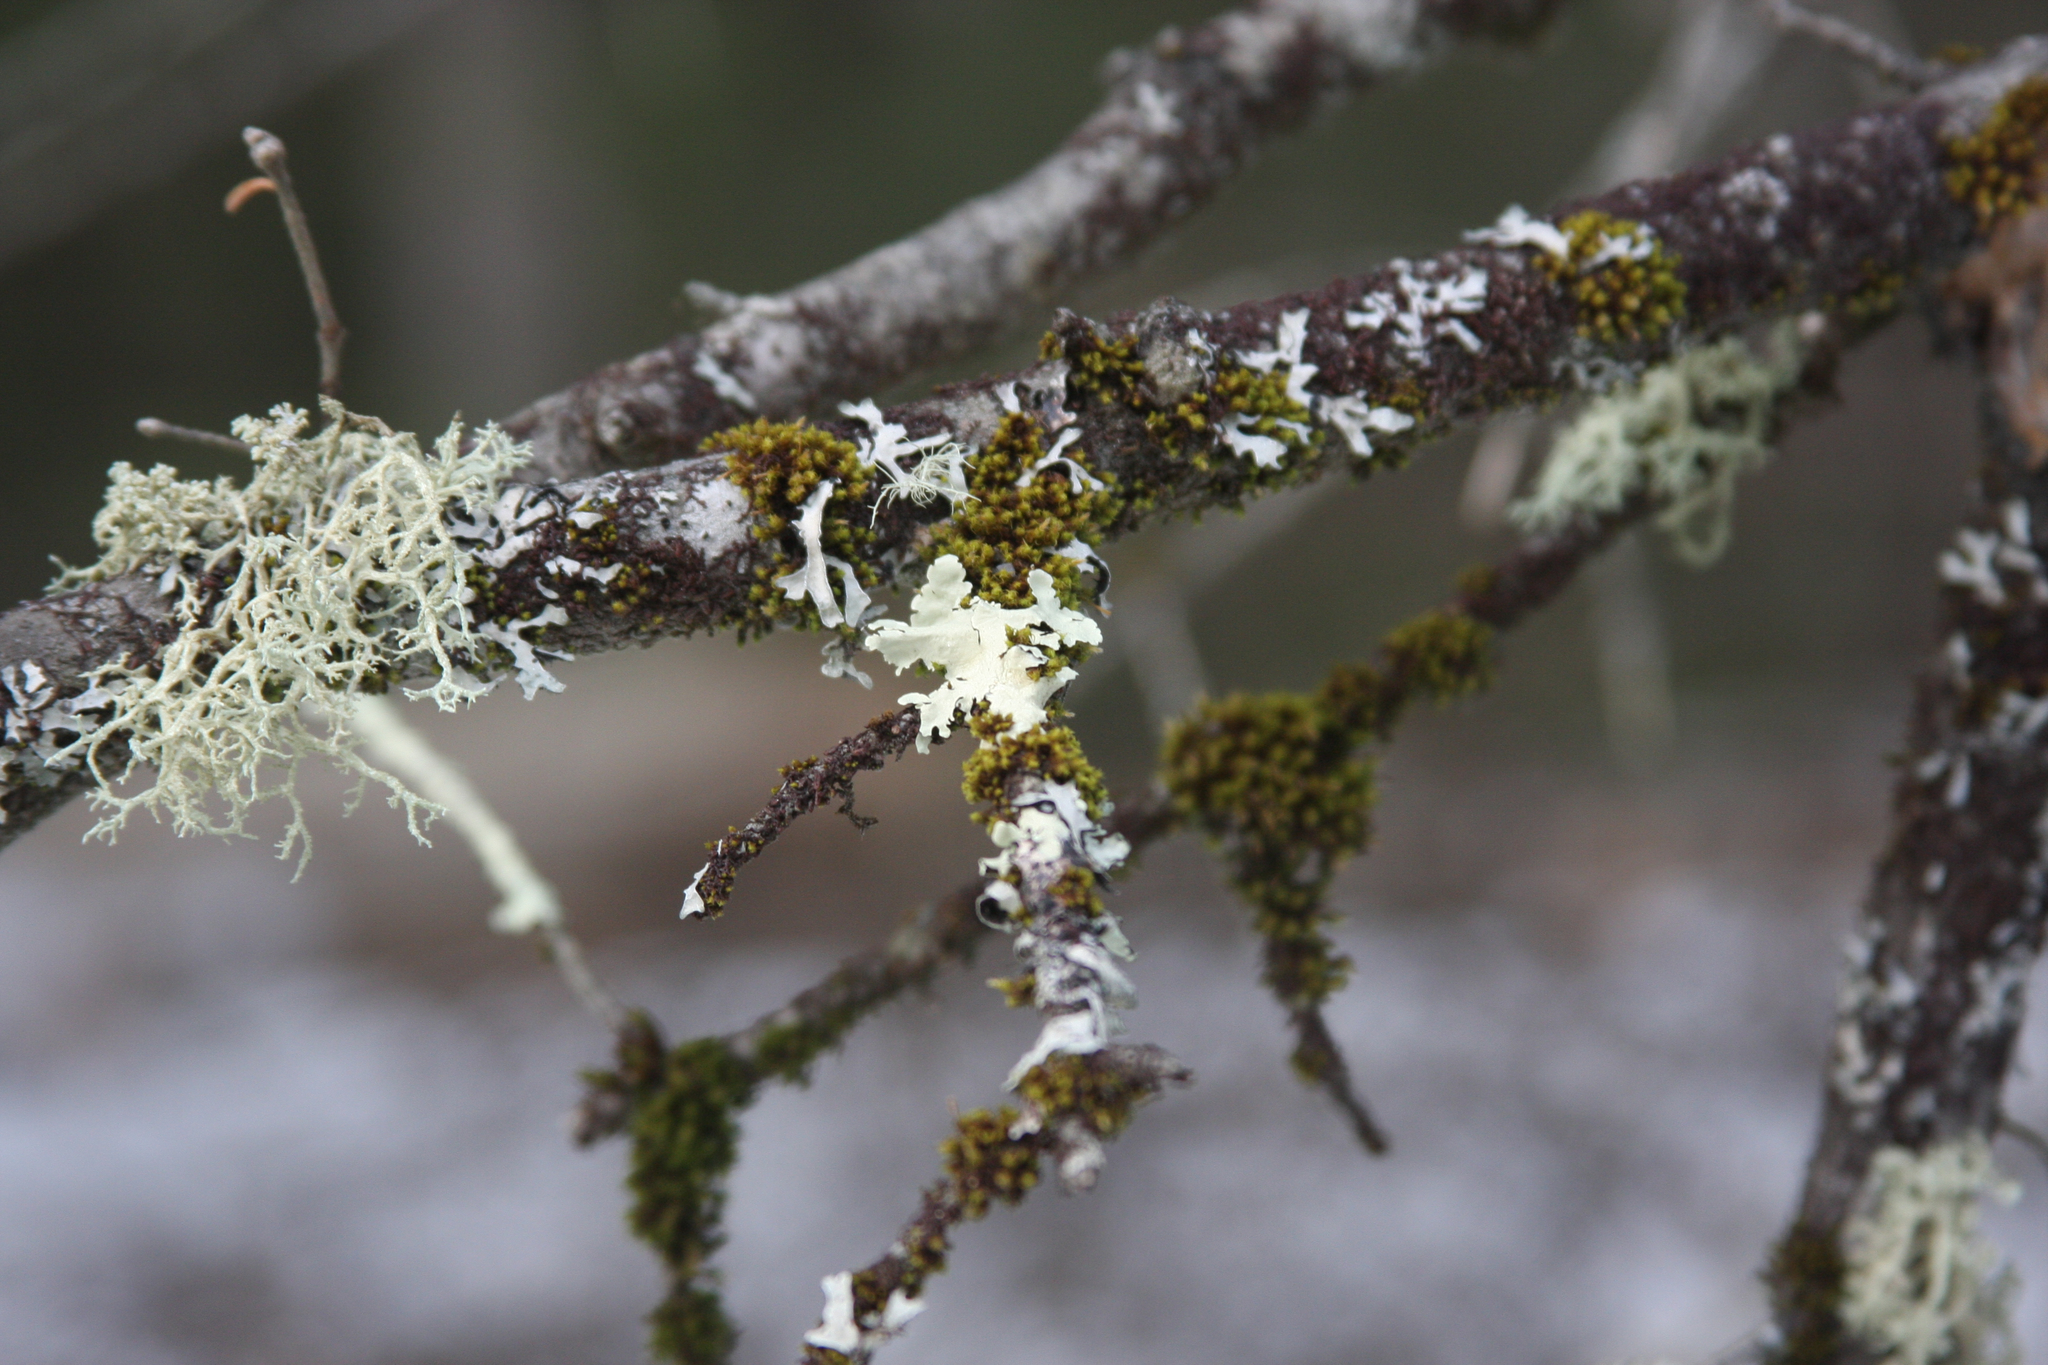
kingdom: Plantae
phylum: Bryophyta
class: Bryopsida
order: Orthotrichales
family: Orthotrichaceae
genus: Ulota
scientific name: Ulota crispa
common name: Crisped pincushion moss
